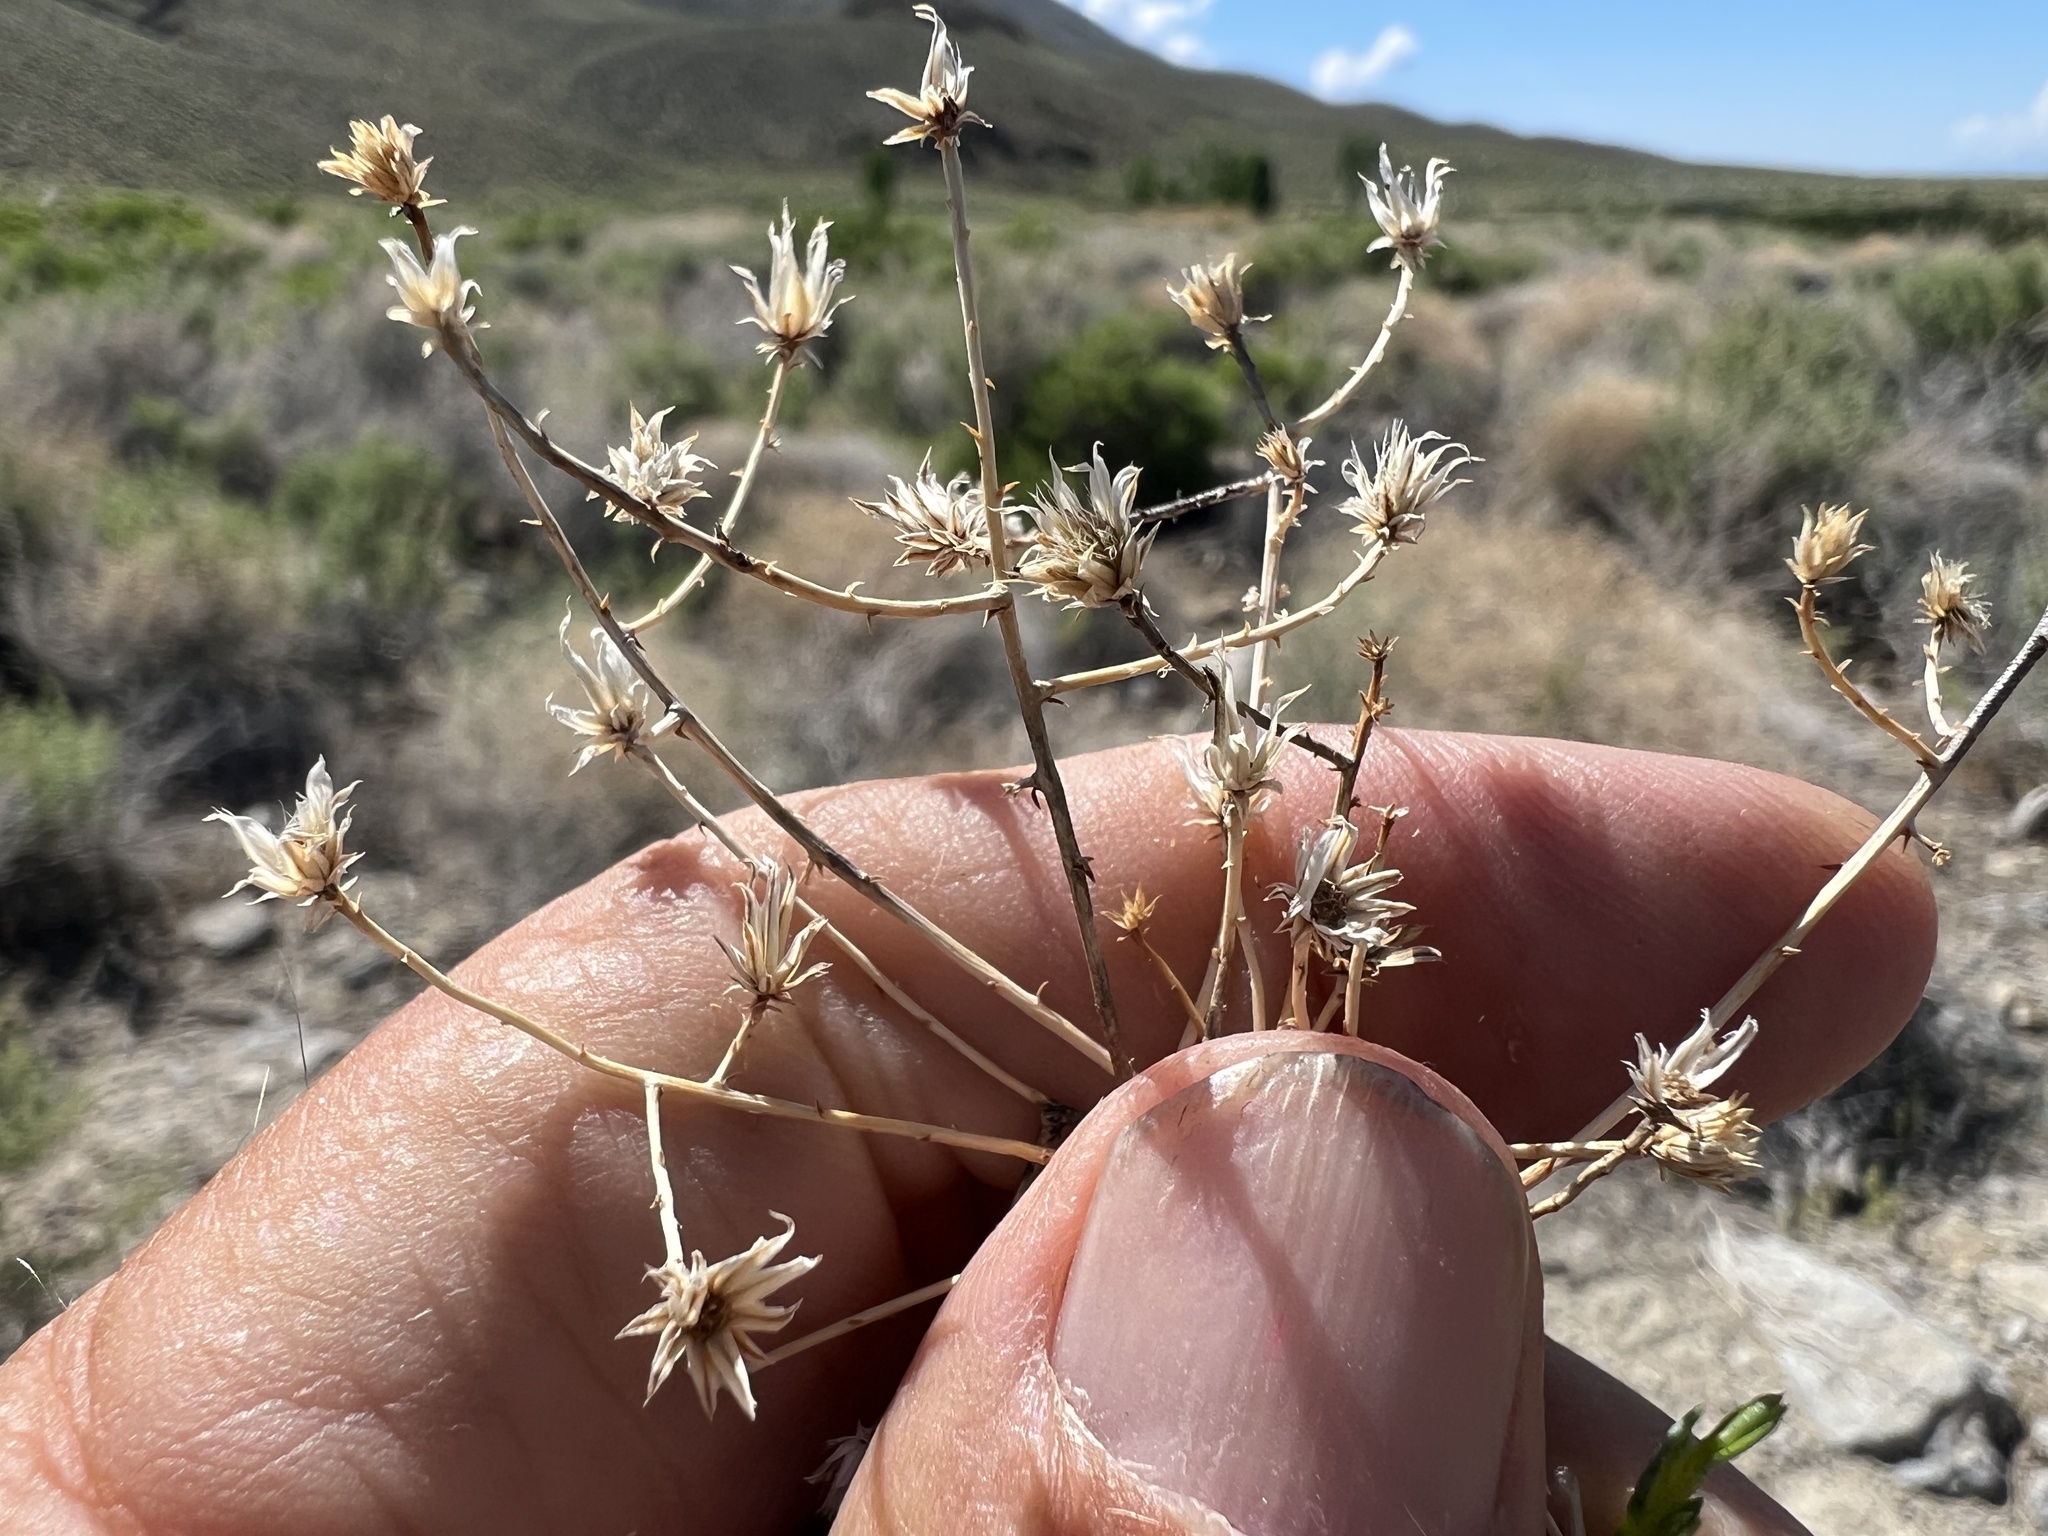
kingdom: Plantae
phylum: Tracheophyta
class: Magnoliopsida
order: Asterales
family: Asteraceae
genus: Leucosyris
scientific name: Leucosyris carnosa
